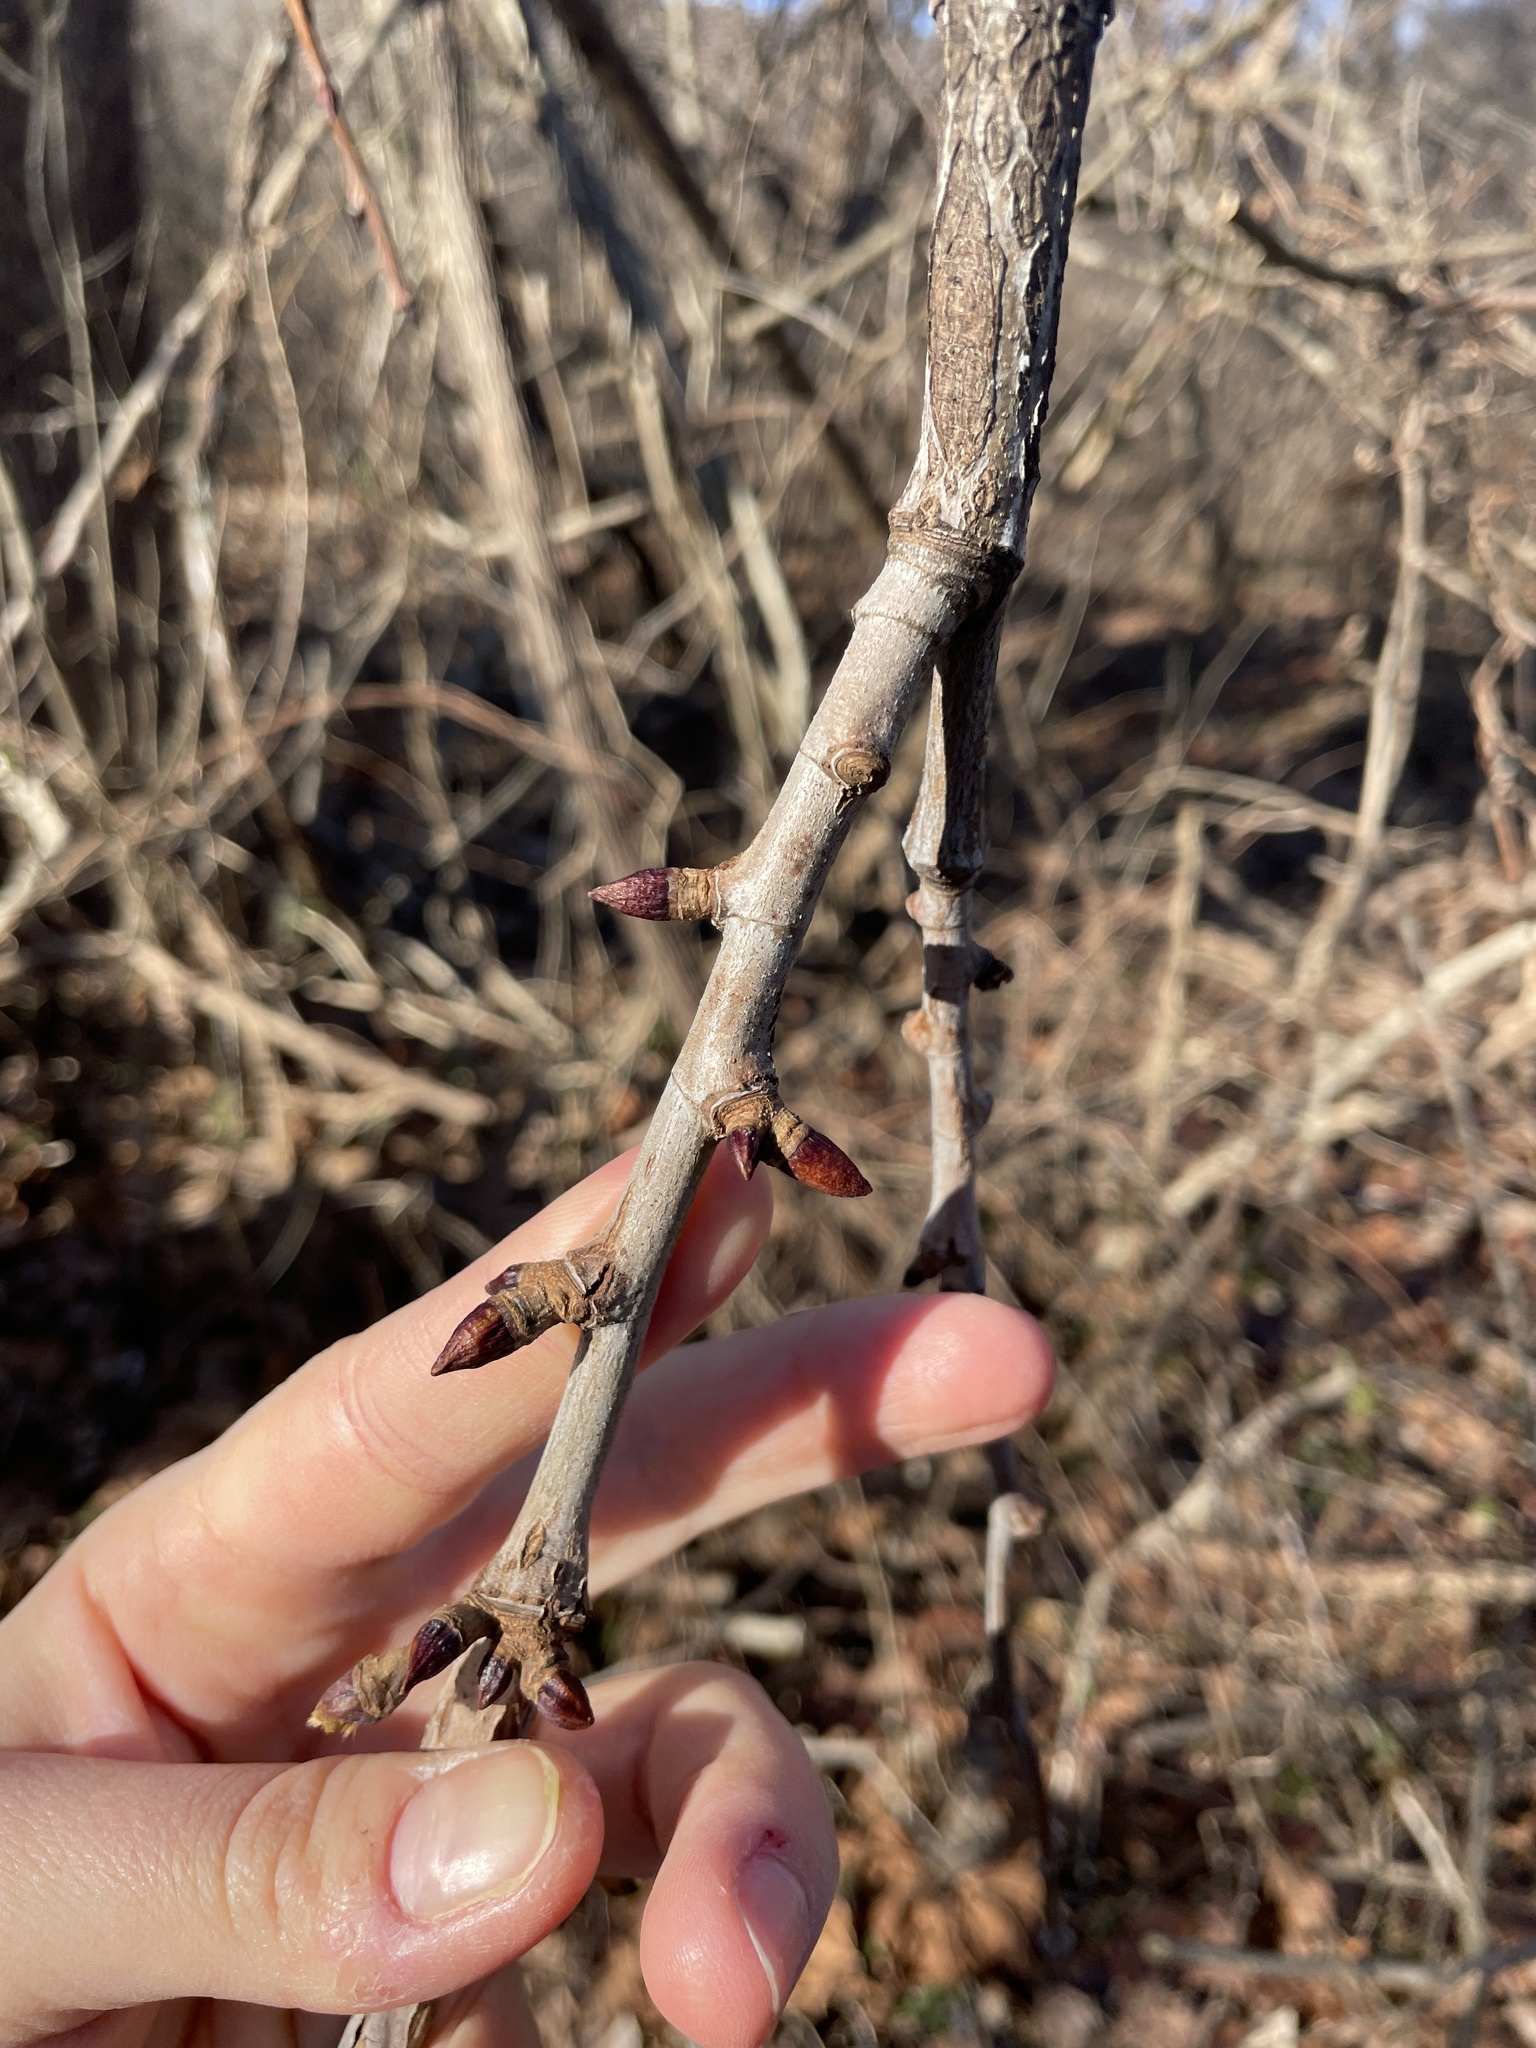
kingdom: Plantae
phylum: Tracheophyta
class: Magnoliopsida
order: Proteales
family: Platanaceae
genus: Platanus
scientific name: Platanus occidentalis
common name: American sycamore
